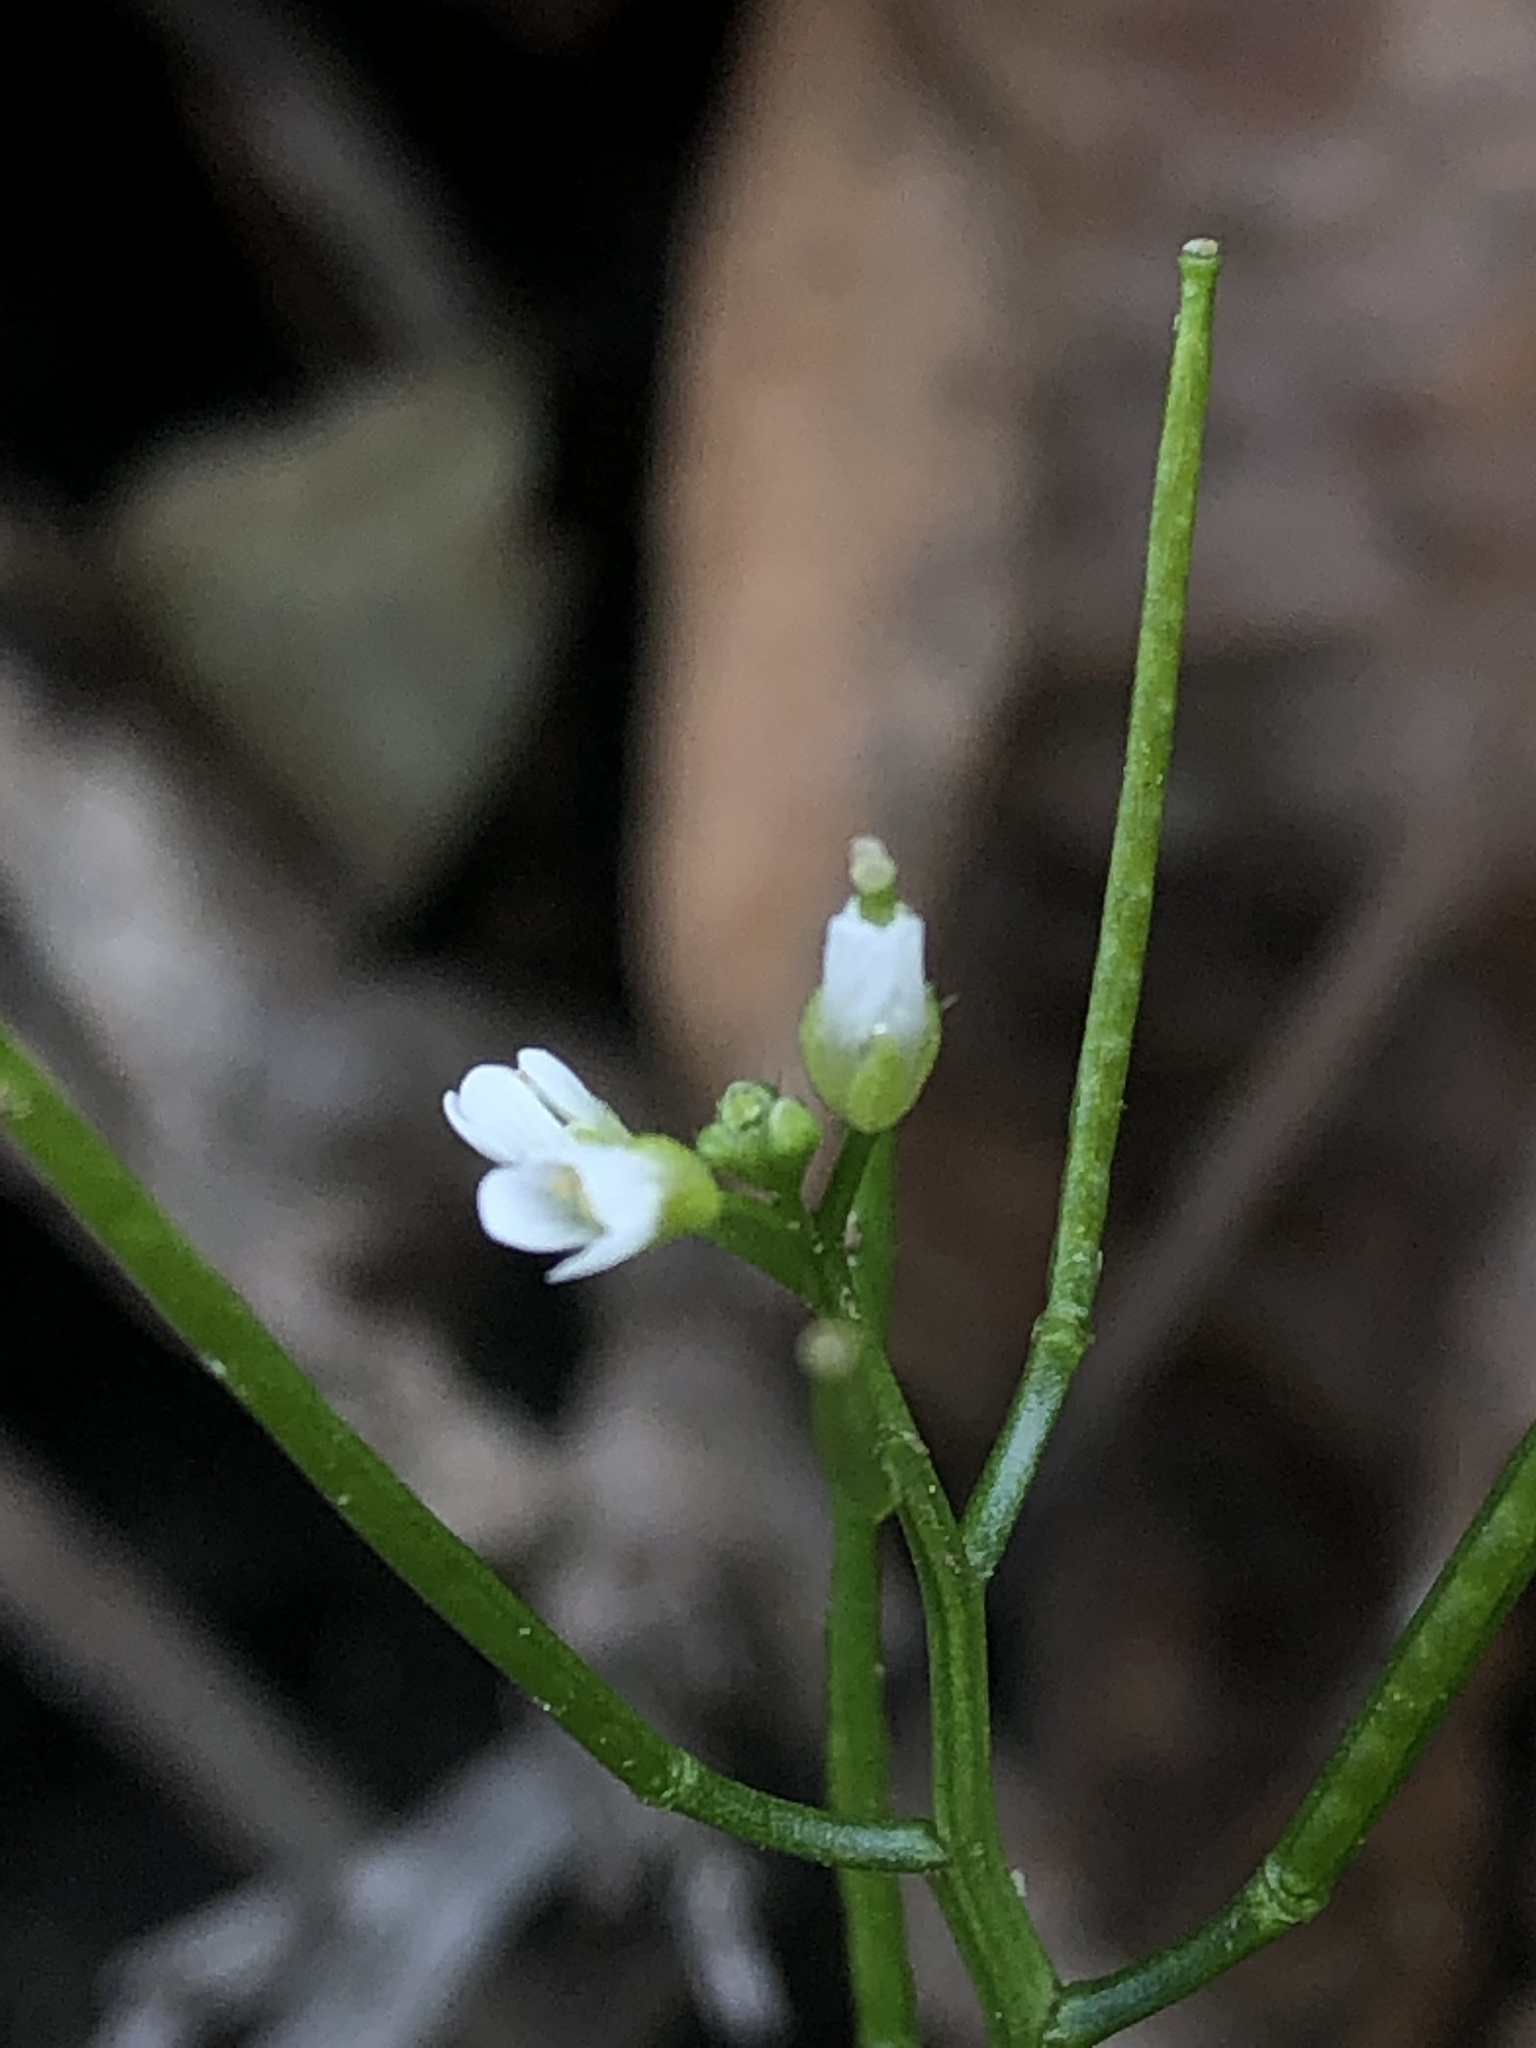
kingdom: Plantae
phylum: Tracheophyta
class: Magnoliopsida
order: Brassicales
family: Brassicaceae
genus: Cardamine
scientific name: Cardamine flexuosa
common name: Woodland bittercress
